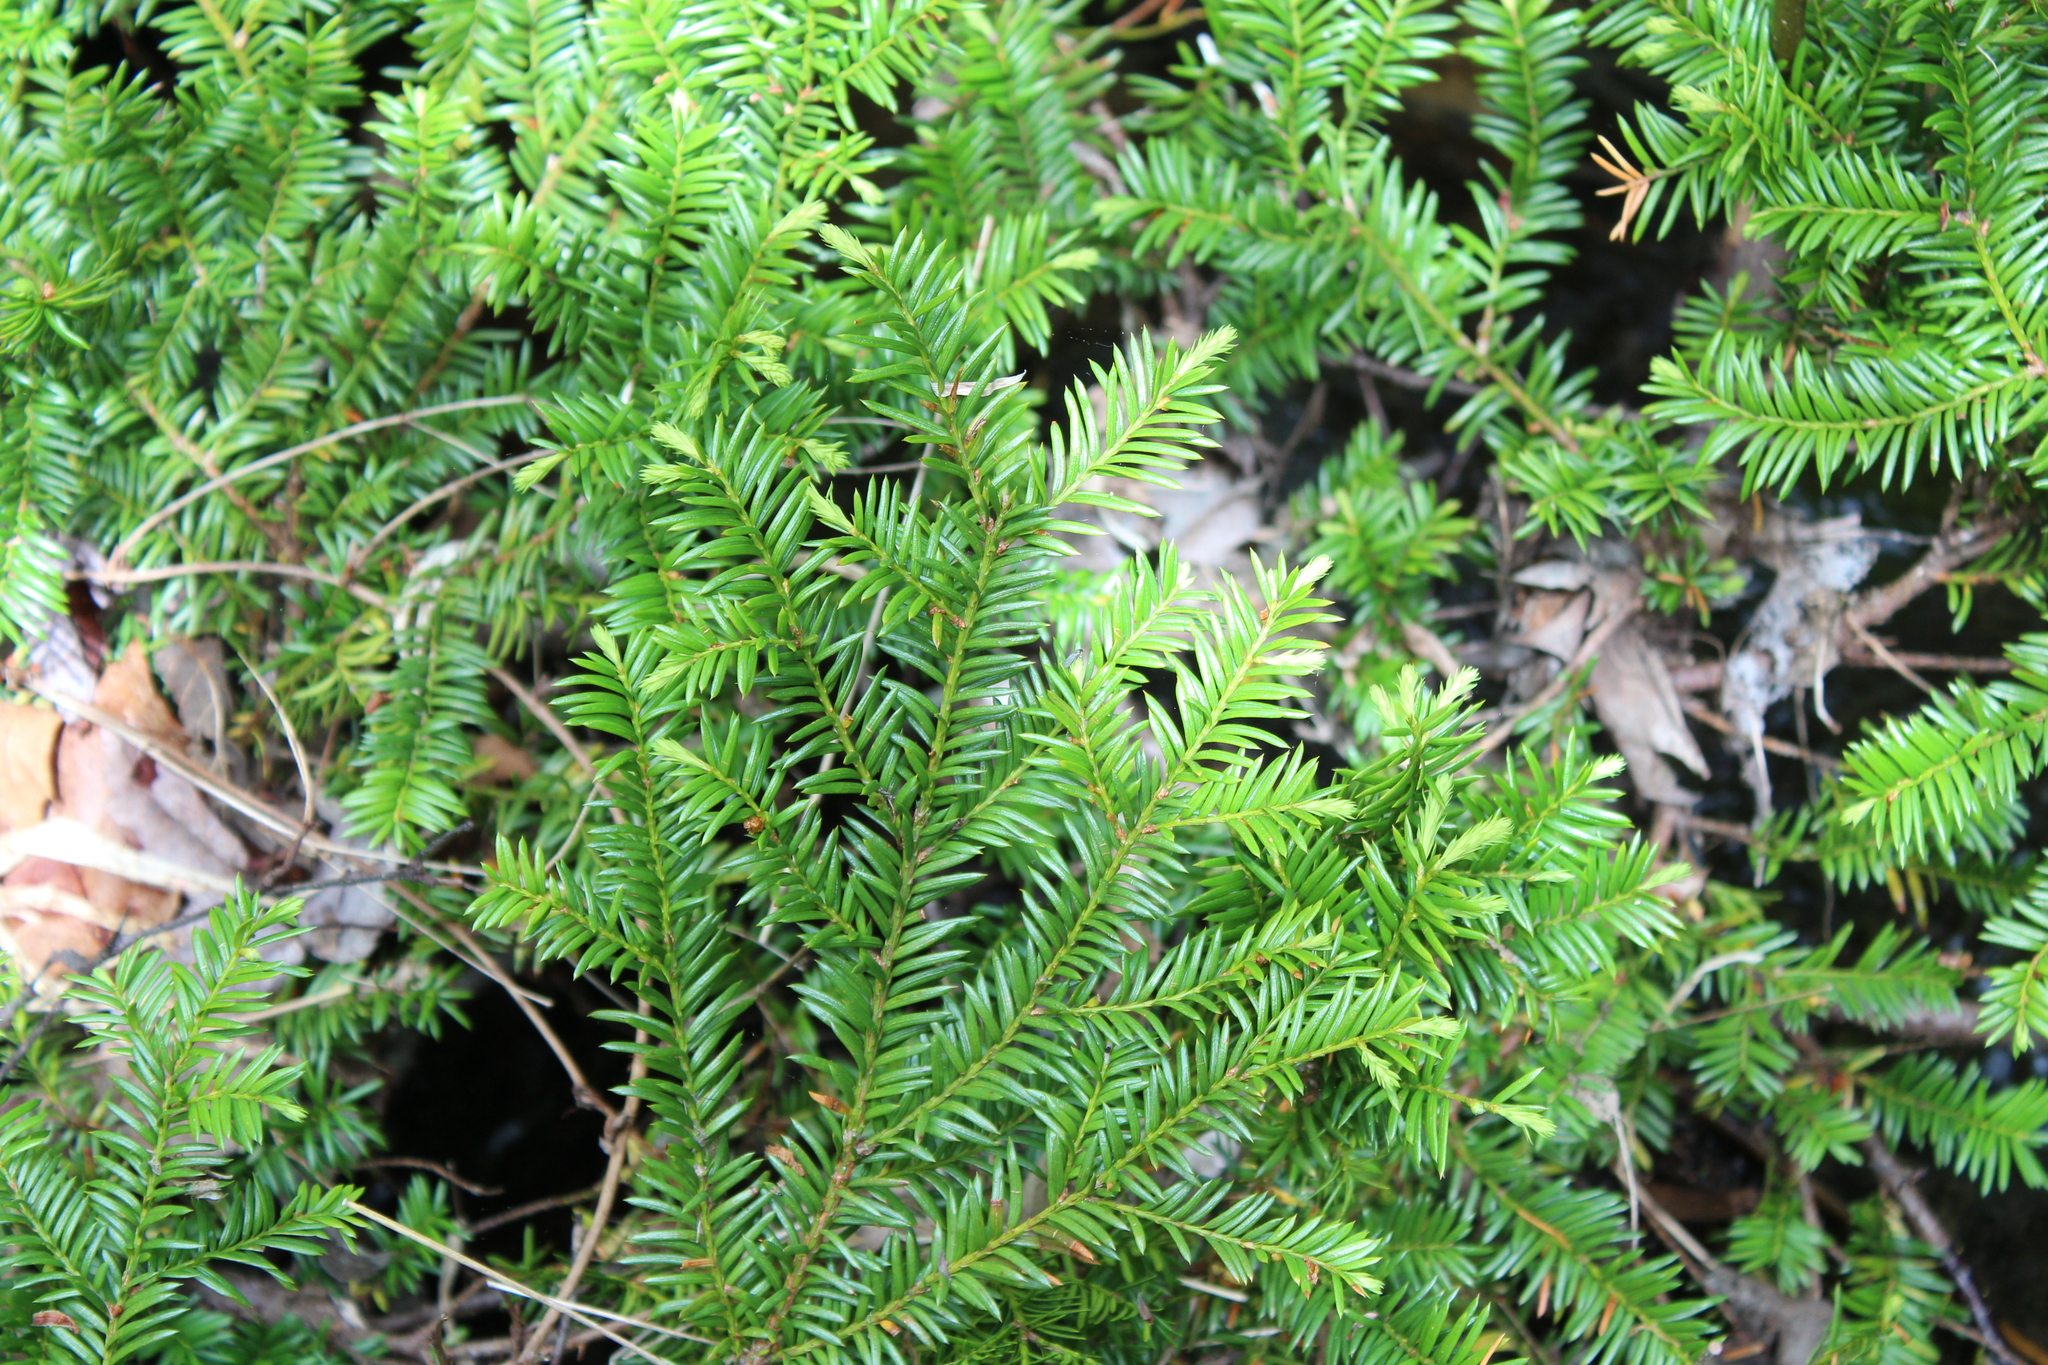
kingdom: Plantae
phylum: Tracheophyta
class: Pinopsida
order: Pinales
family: Taxaceae
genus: Taxus
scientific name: Taxus canadensis
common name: American yew
